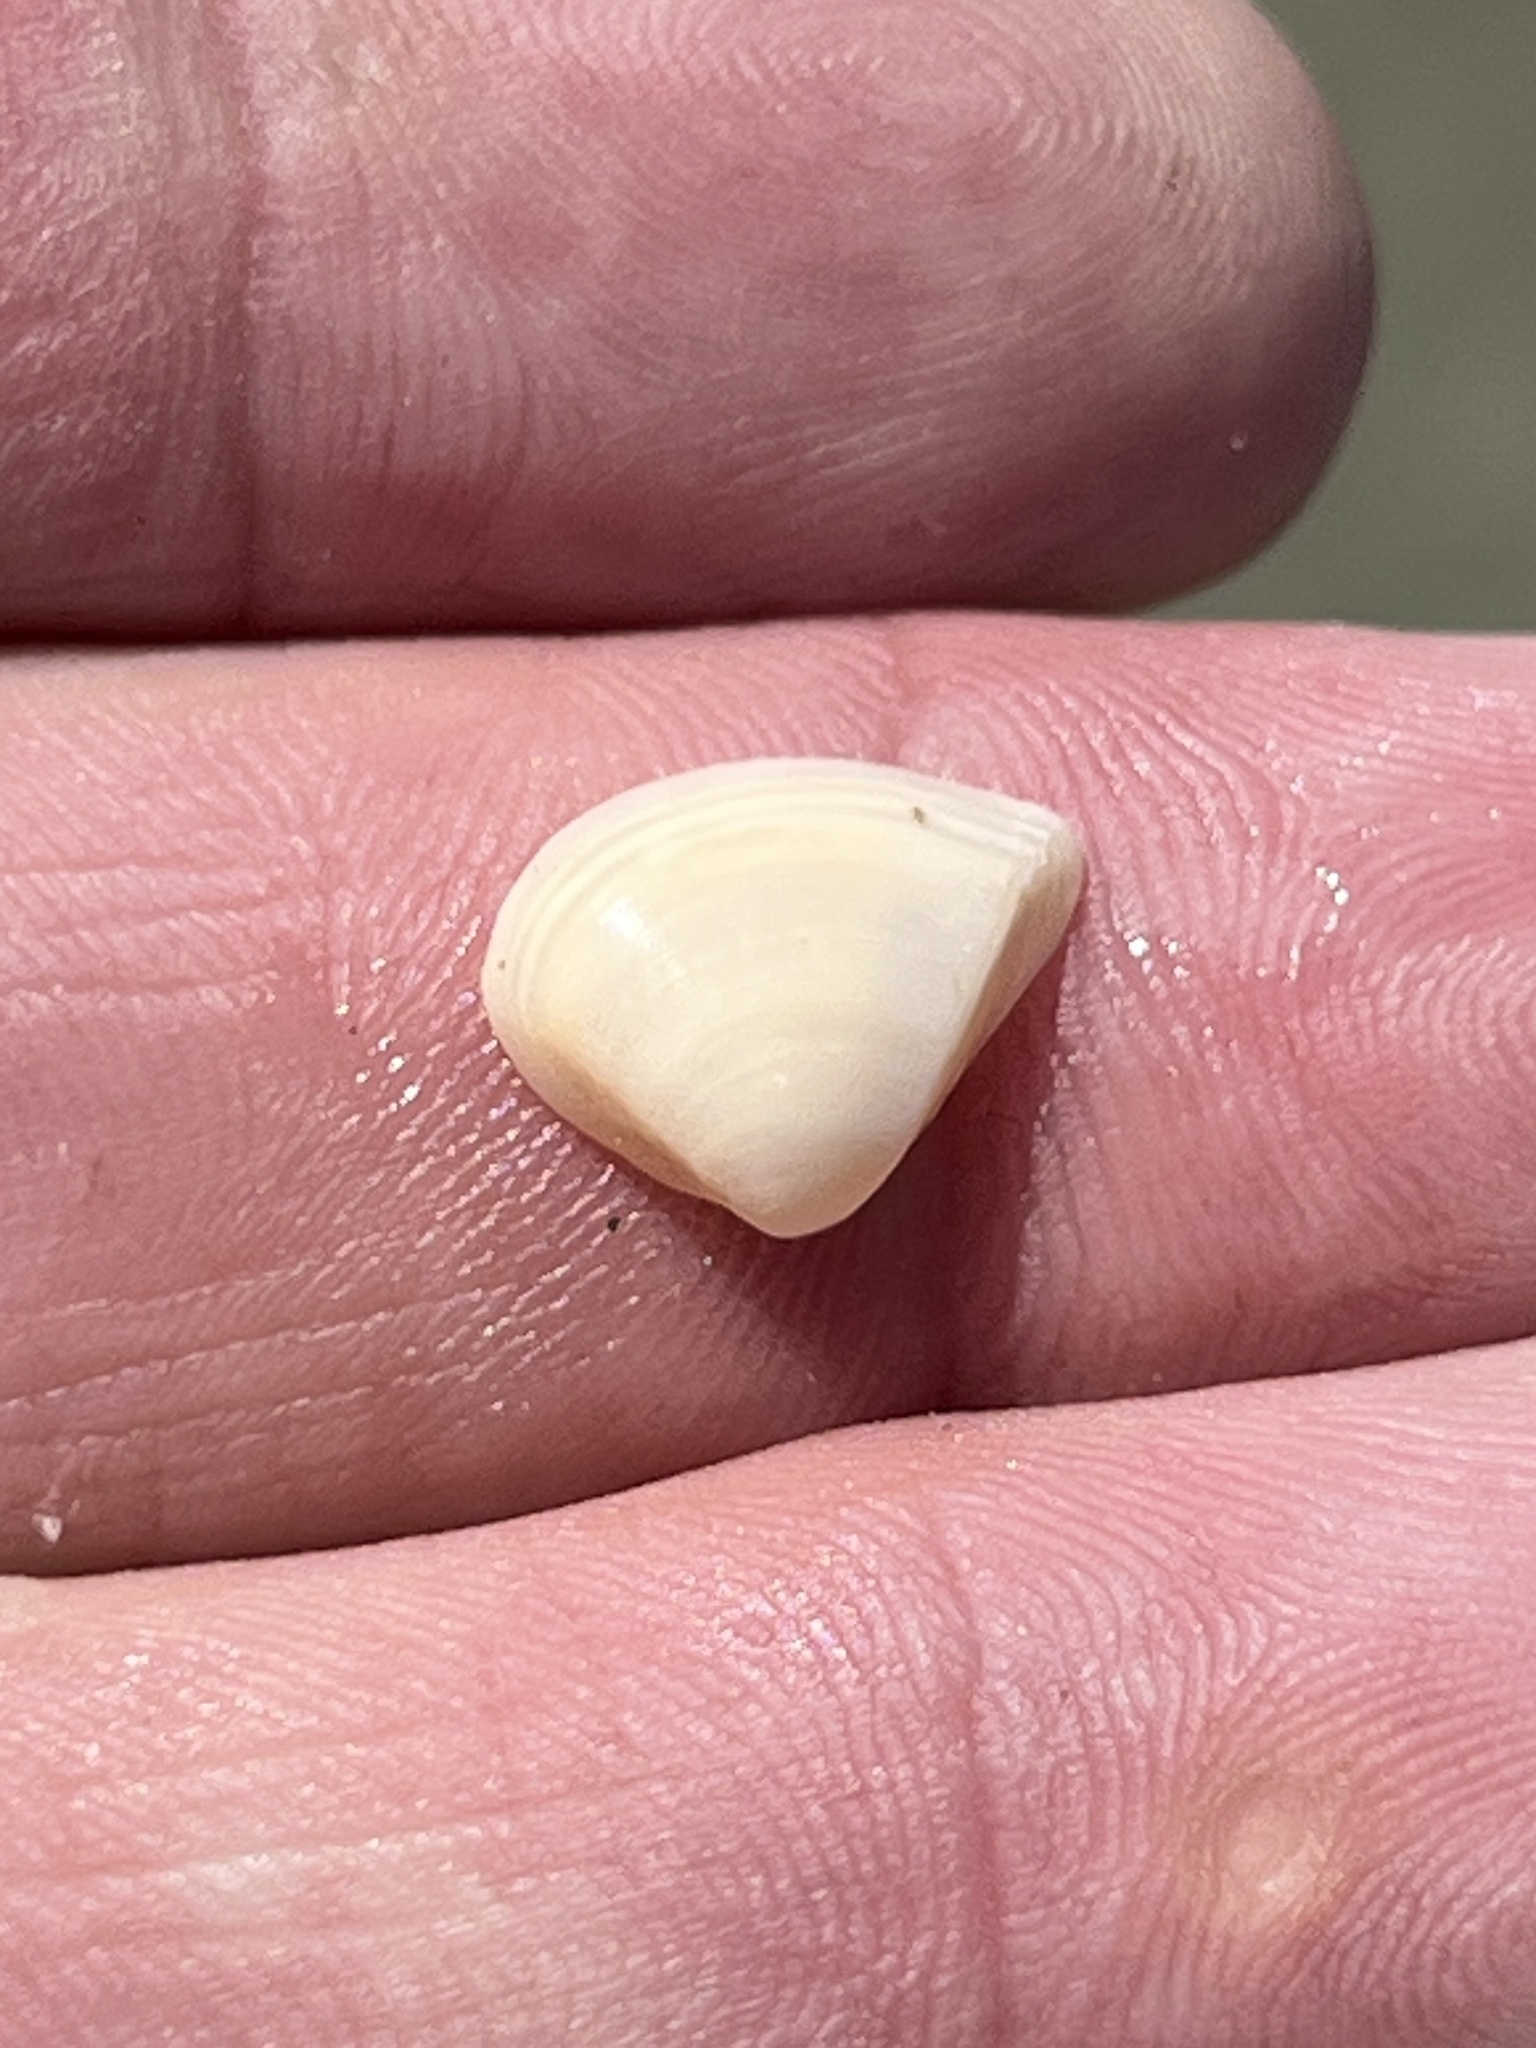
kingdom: Animalia
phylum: Mollusca
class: Bivalvia
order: Venerida
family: Mactridae
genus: Mulinia
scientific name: Mulinia lateralis
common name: Dwarf surfclam
